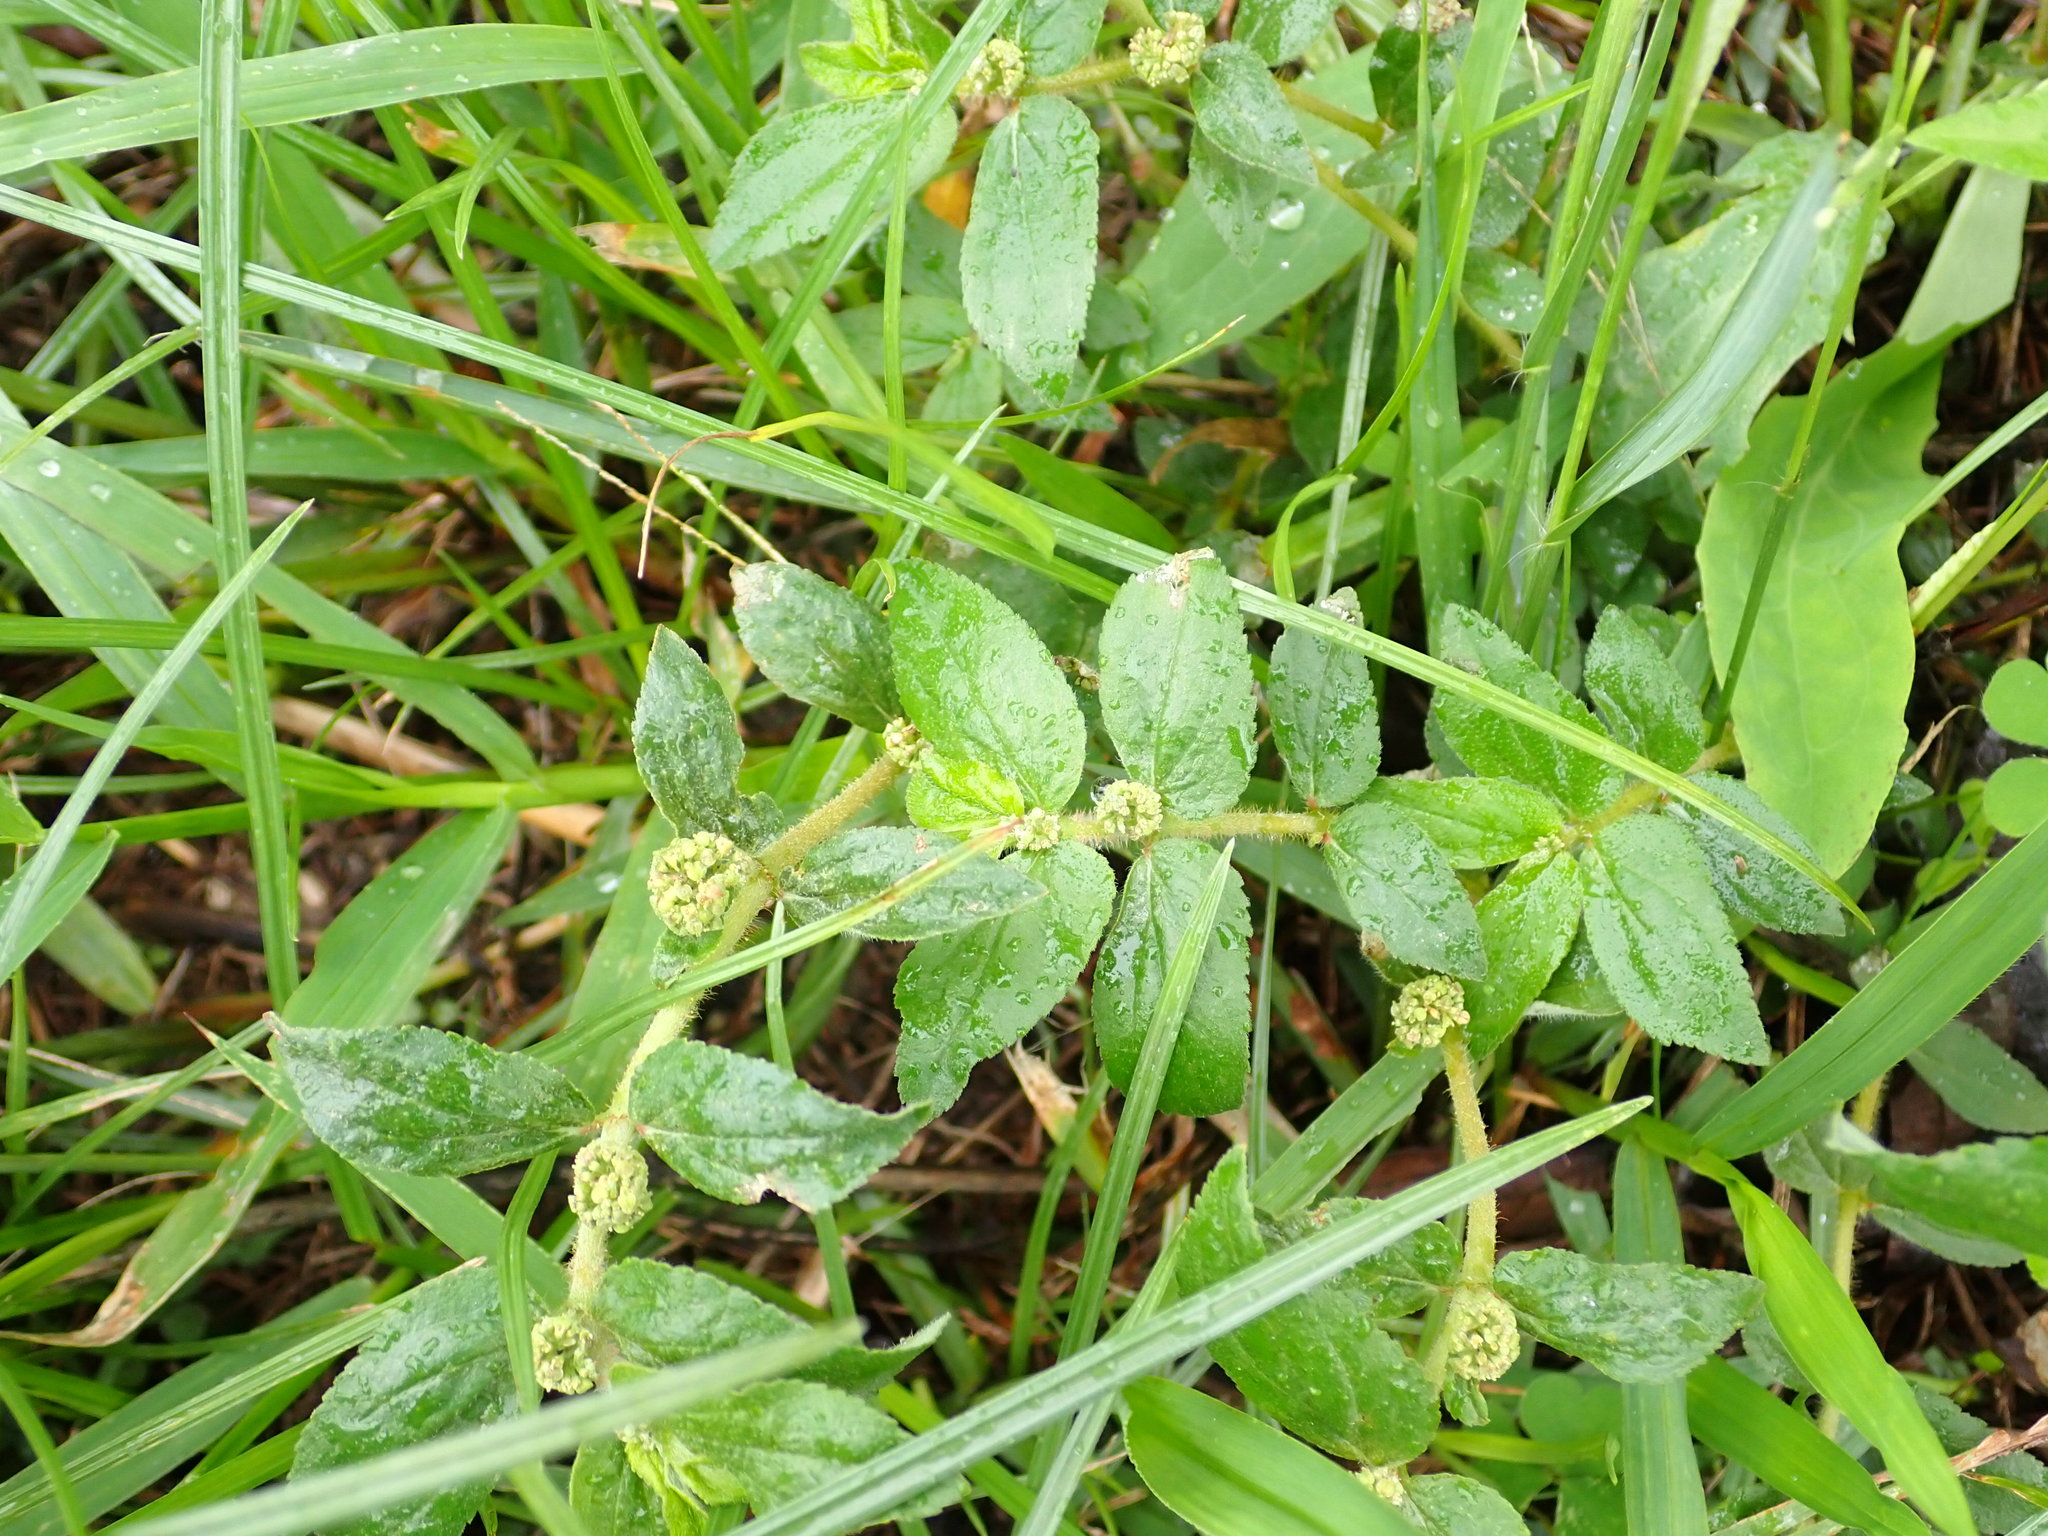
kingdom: Plantae
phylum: Tracheophyta
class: Magnoliopsida
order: Malpighiales
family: Euphorbiaceae
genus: Euphorbia
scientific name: Euphorbia hirta
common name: Pillpod sandmat
